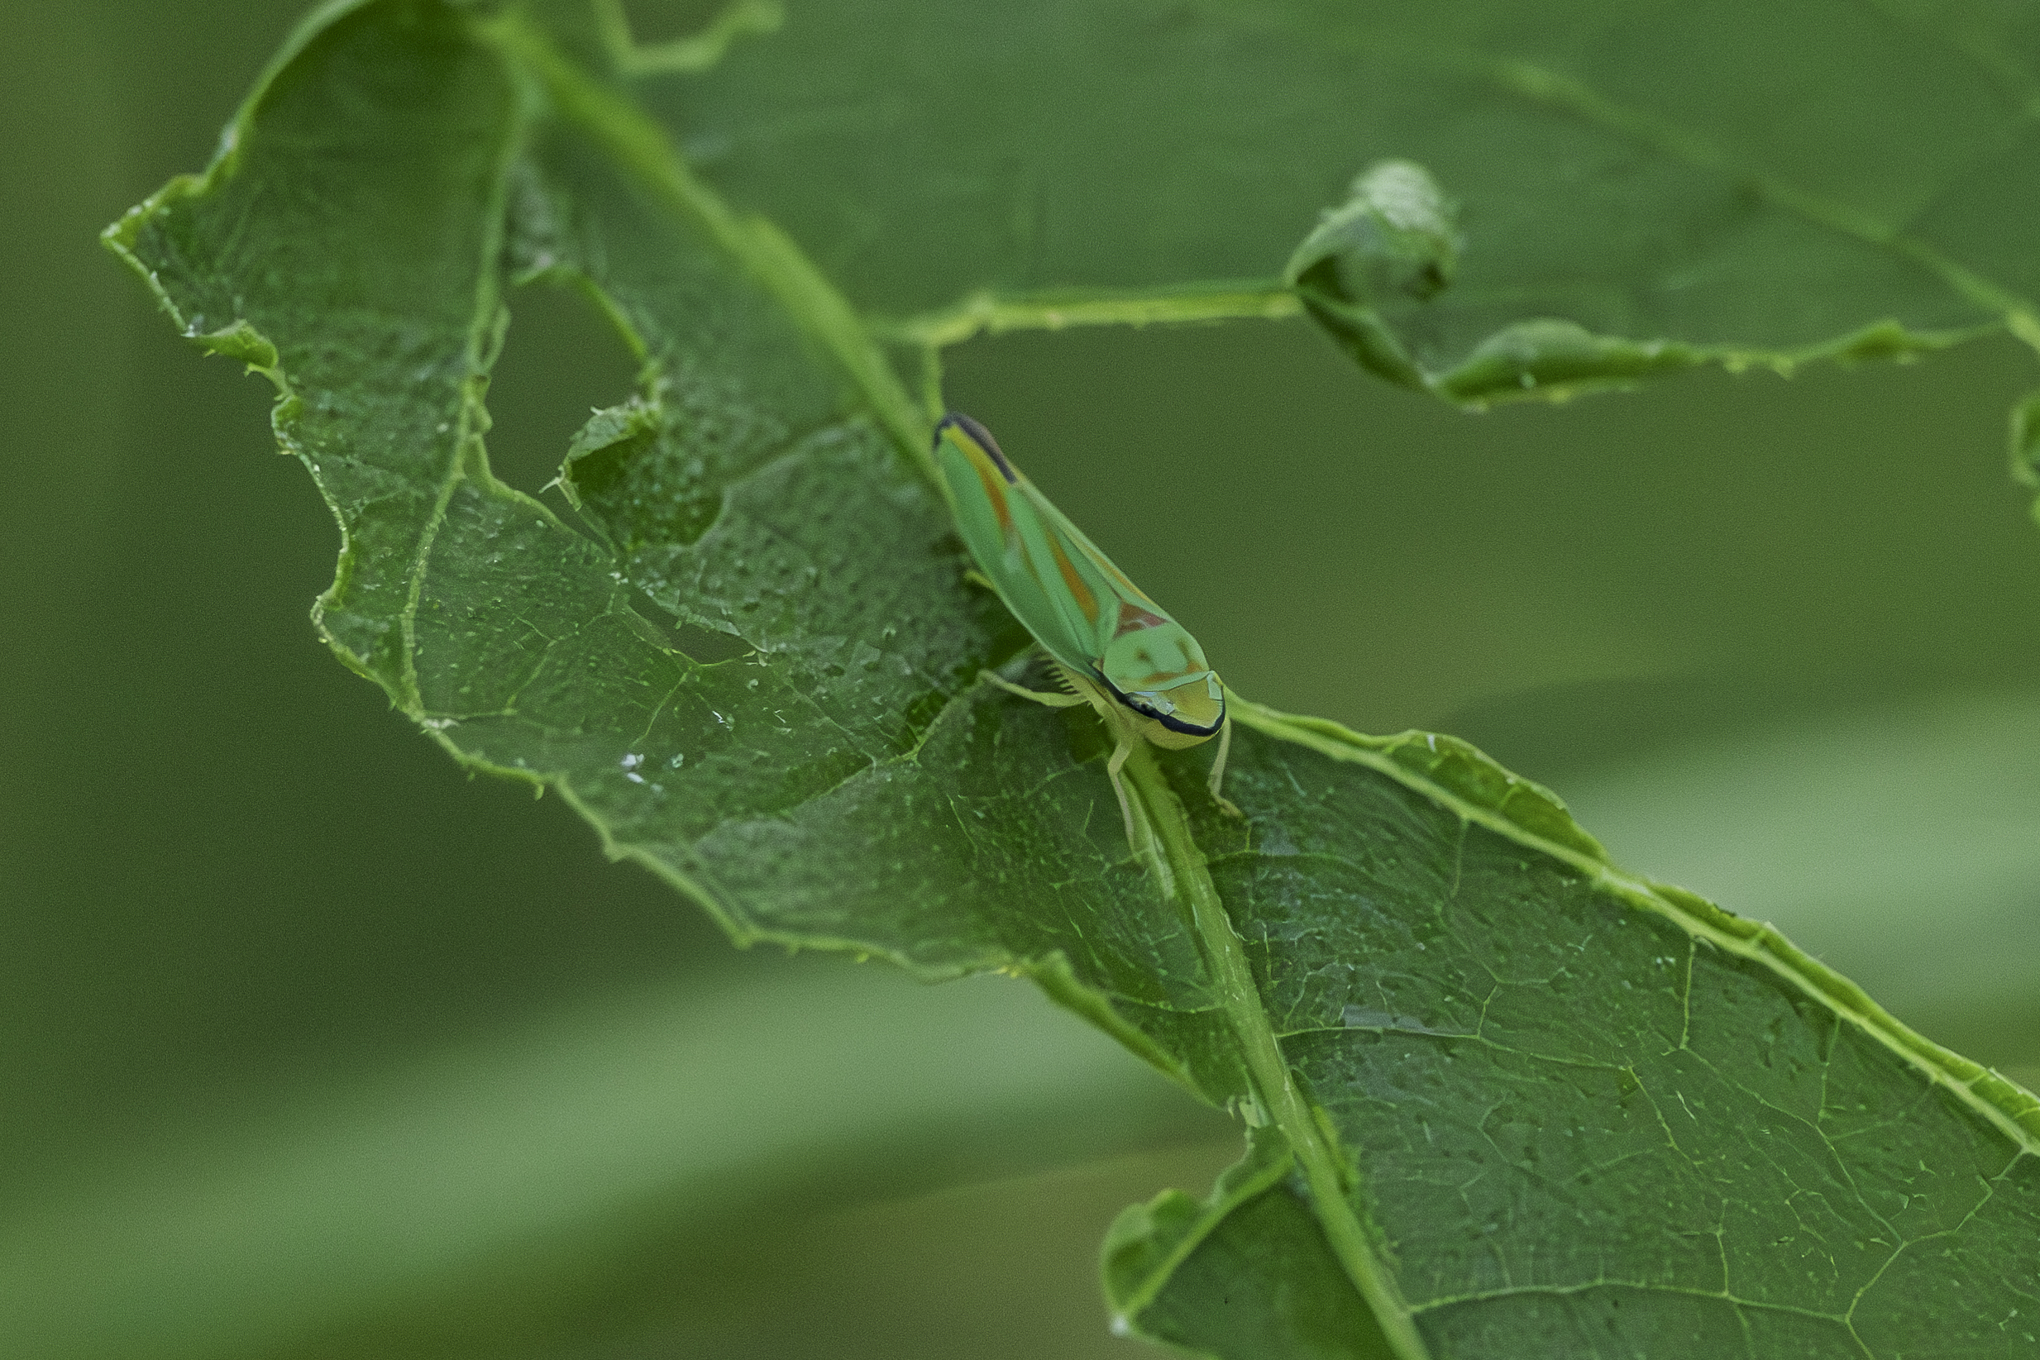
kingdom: Animalia
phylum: Arthropoda
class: Insecta
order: Hemiptera
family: Cicadellidae
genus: Graphocephala
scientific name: Graphocephala fennahi
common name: Rhododendron leafhopper
